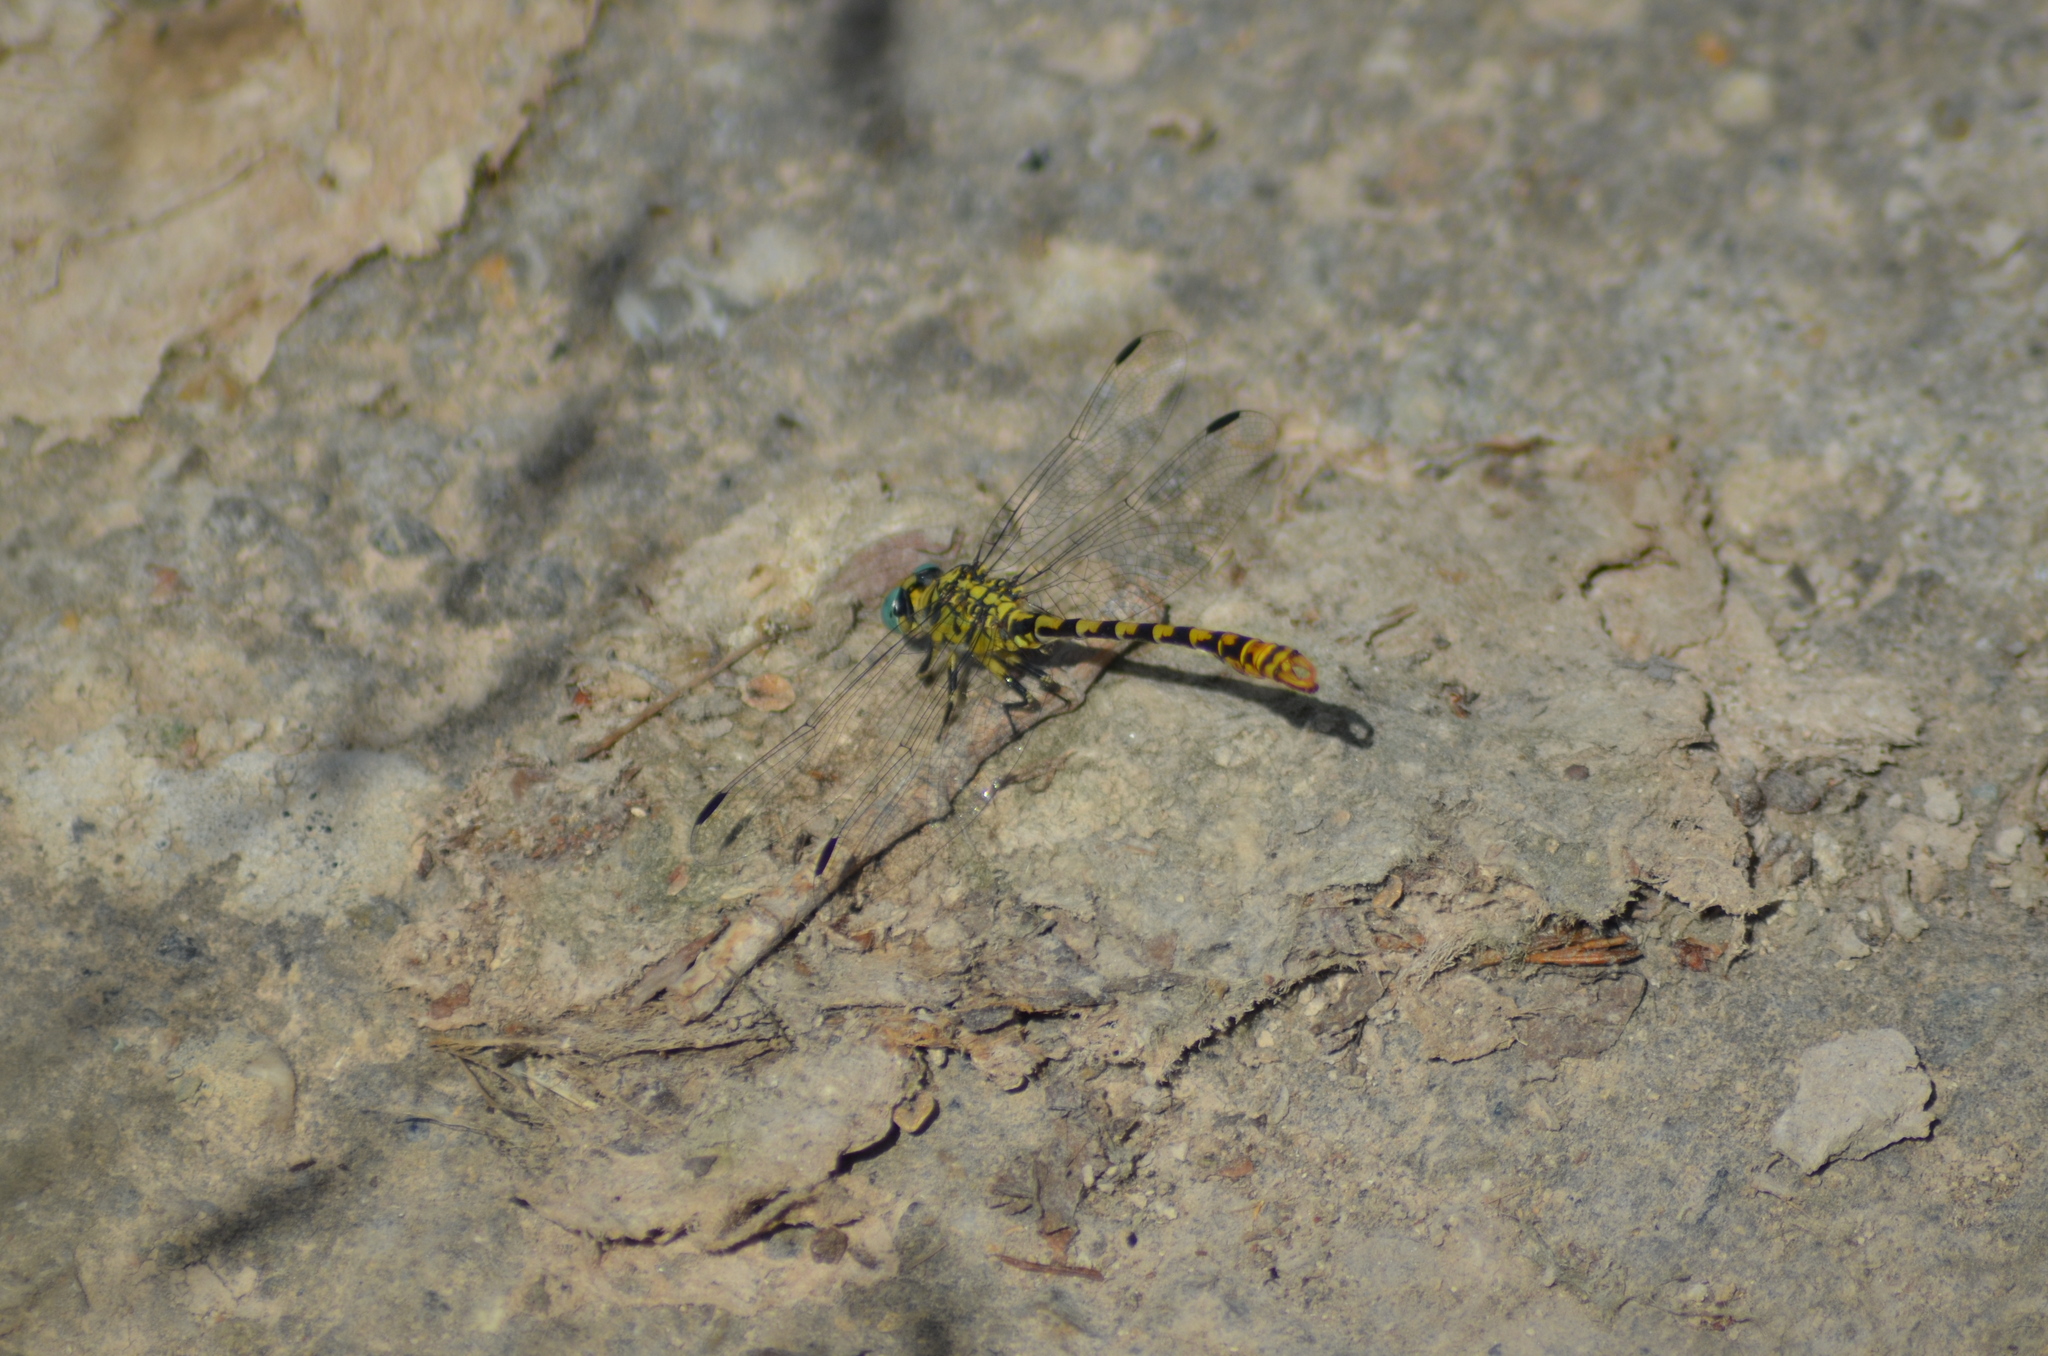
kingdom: Animalia
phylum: Arthropoda
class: Insecta
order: Odonata
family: Gomphidae
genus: Onychogomphus
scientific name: Onychogomphus forcipatus
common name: Small pincertail
